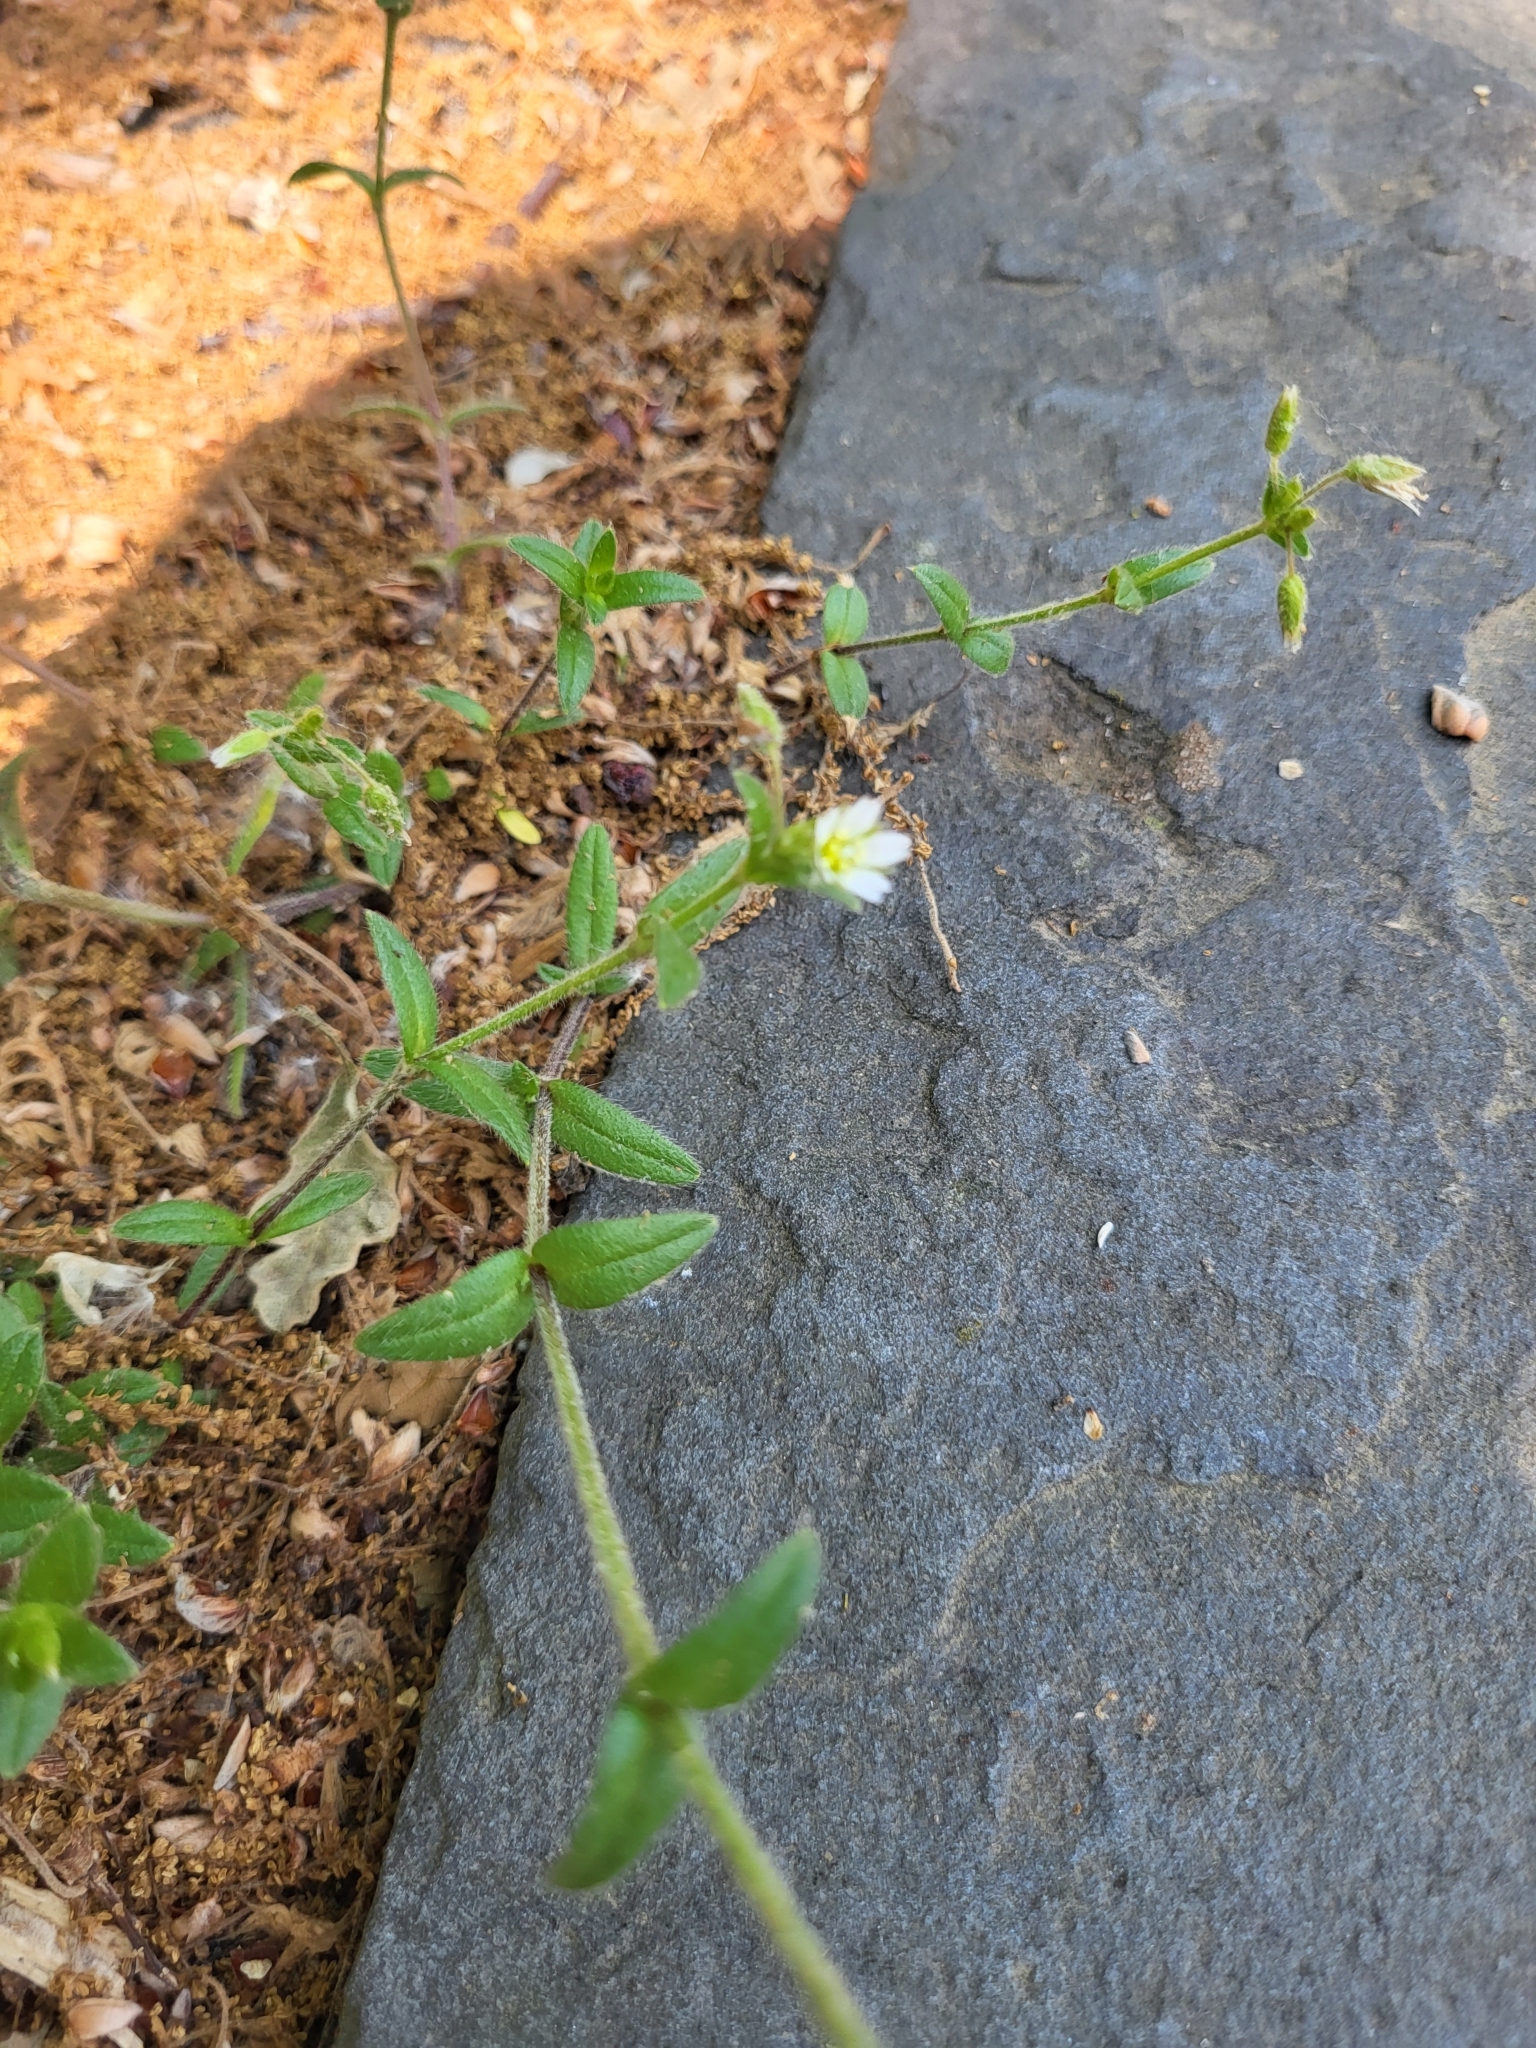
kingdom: Plantae
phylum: Tracheophyta
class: Magnoliopsida
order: Caryophyllales
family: Caryophyllaceae
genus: Cerastium
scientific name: Cerastium pumilum
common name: Dwarf mouse-ear
